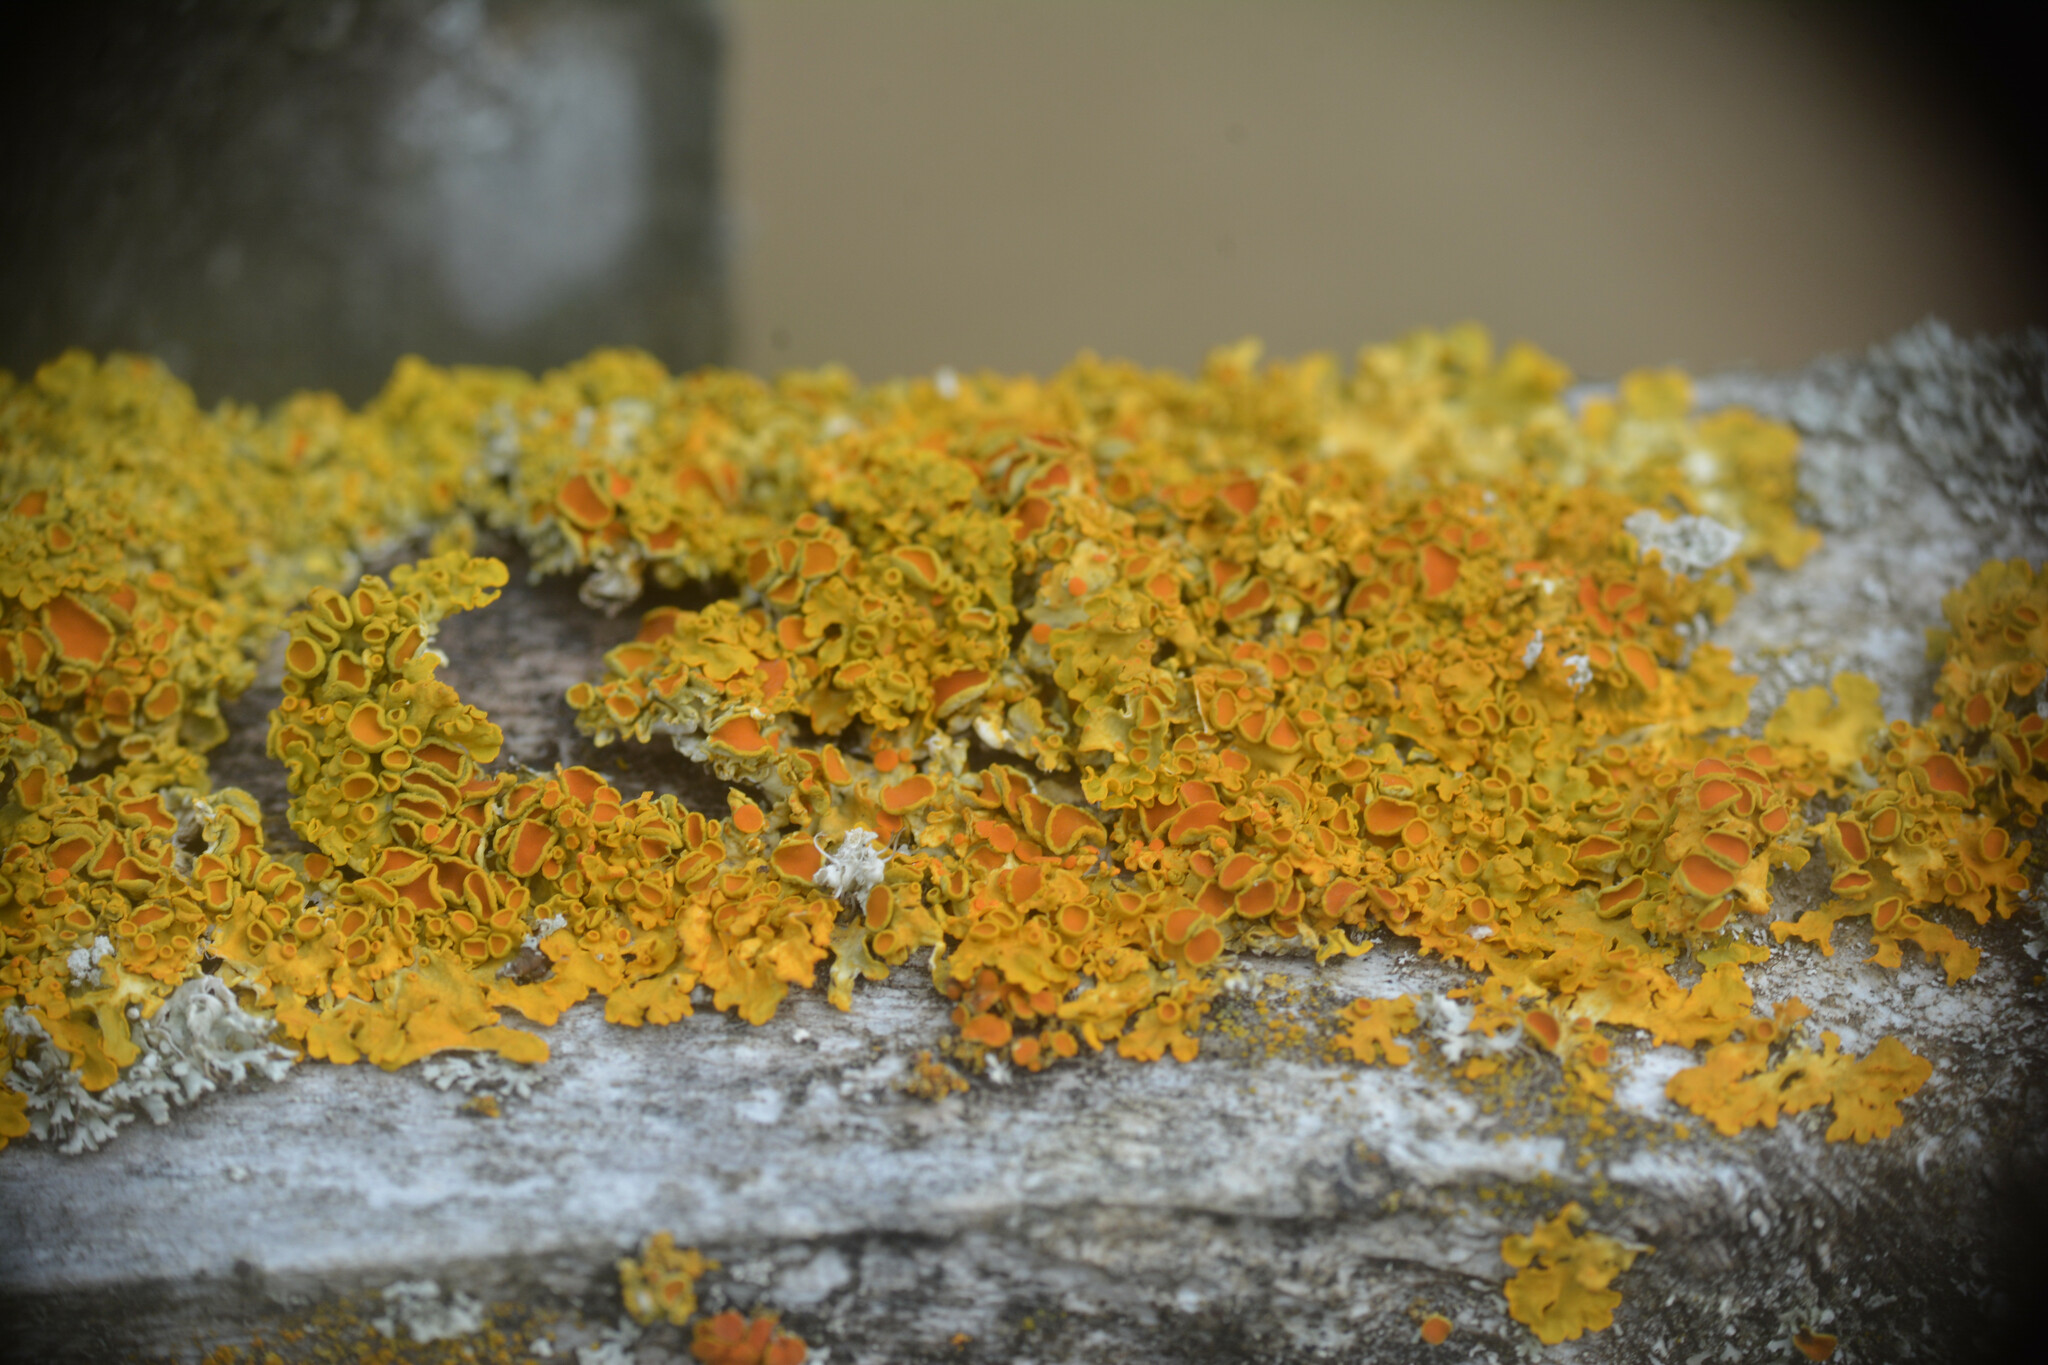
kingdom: Fungi
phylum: Ascomycota
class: Lecanoromycetes
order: Teloschistales
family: Teloschistaceae
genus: Xanthoria
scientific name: Xanthoria parietina
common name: Common orange lichen
